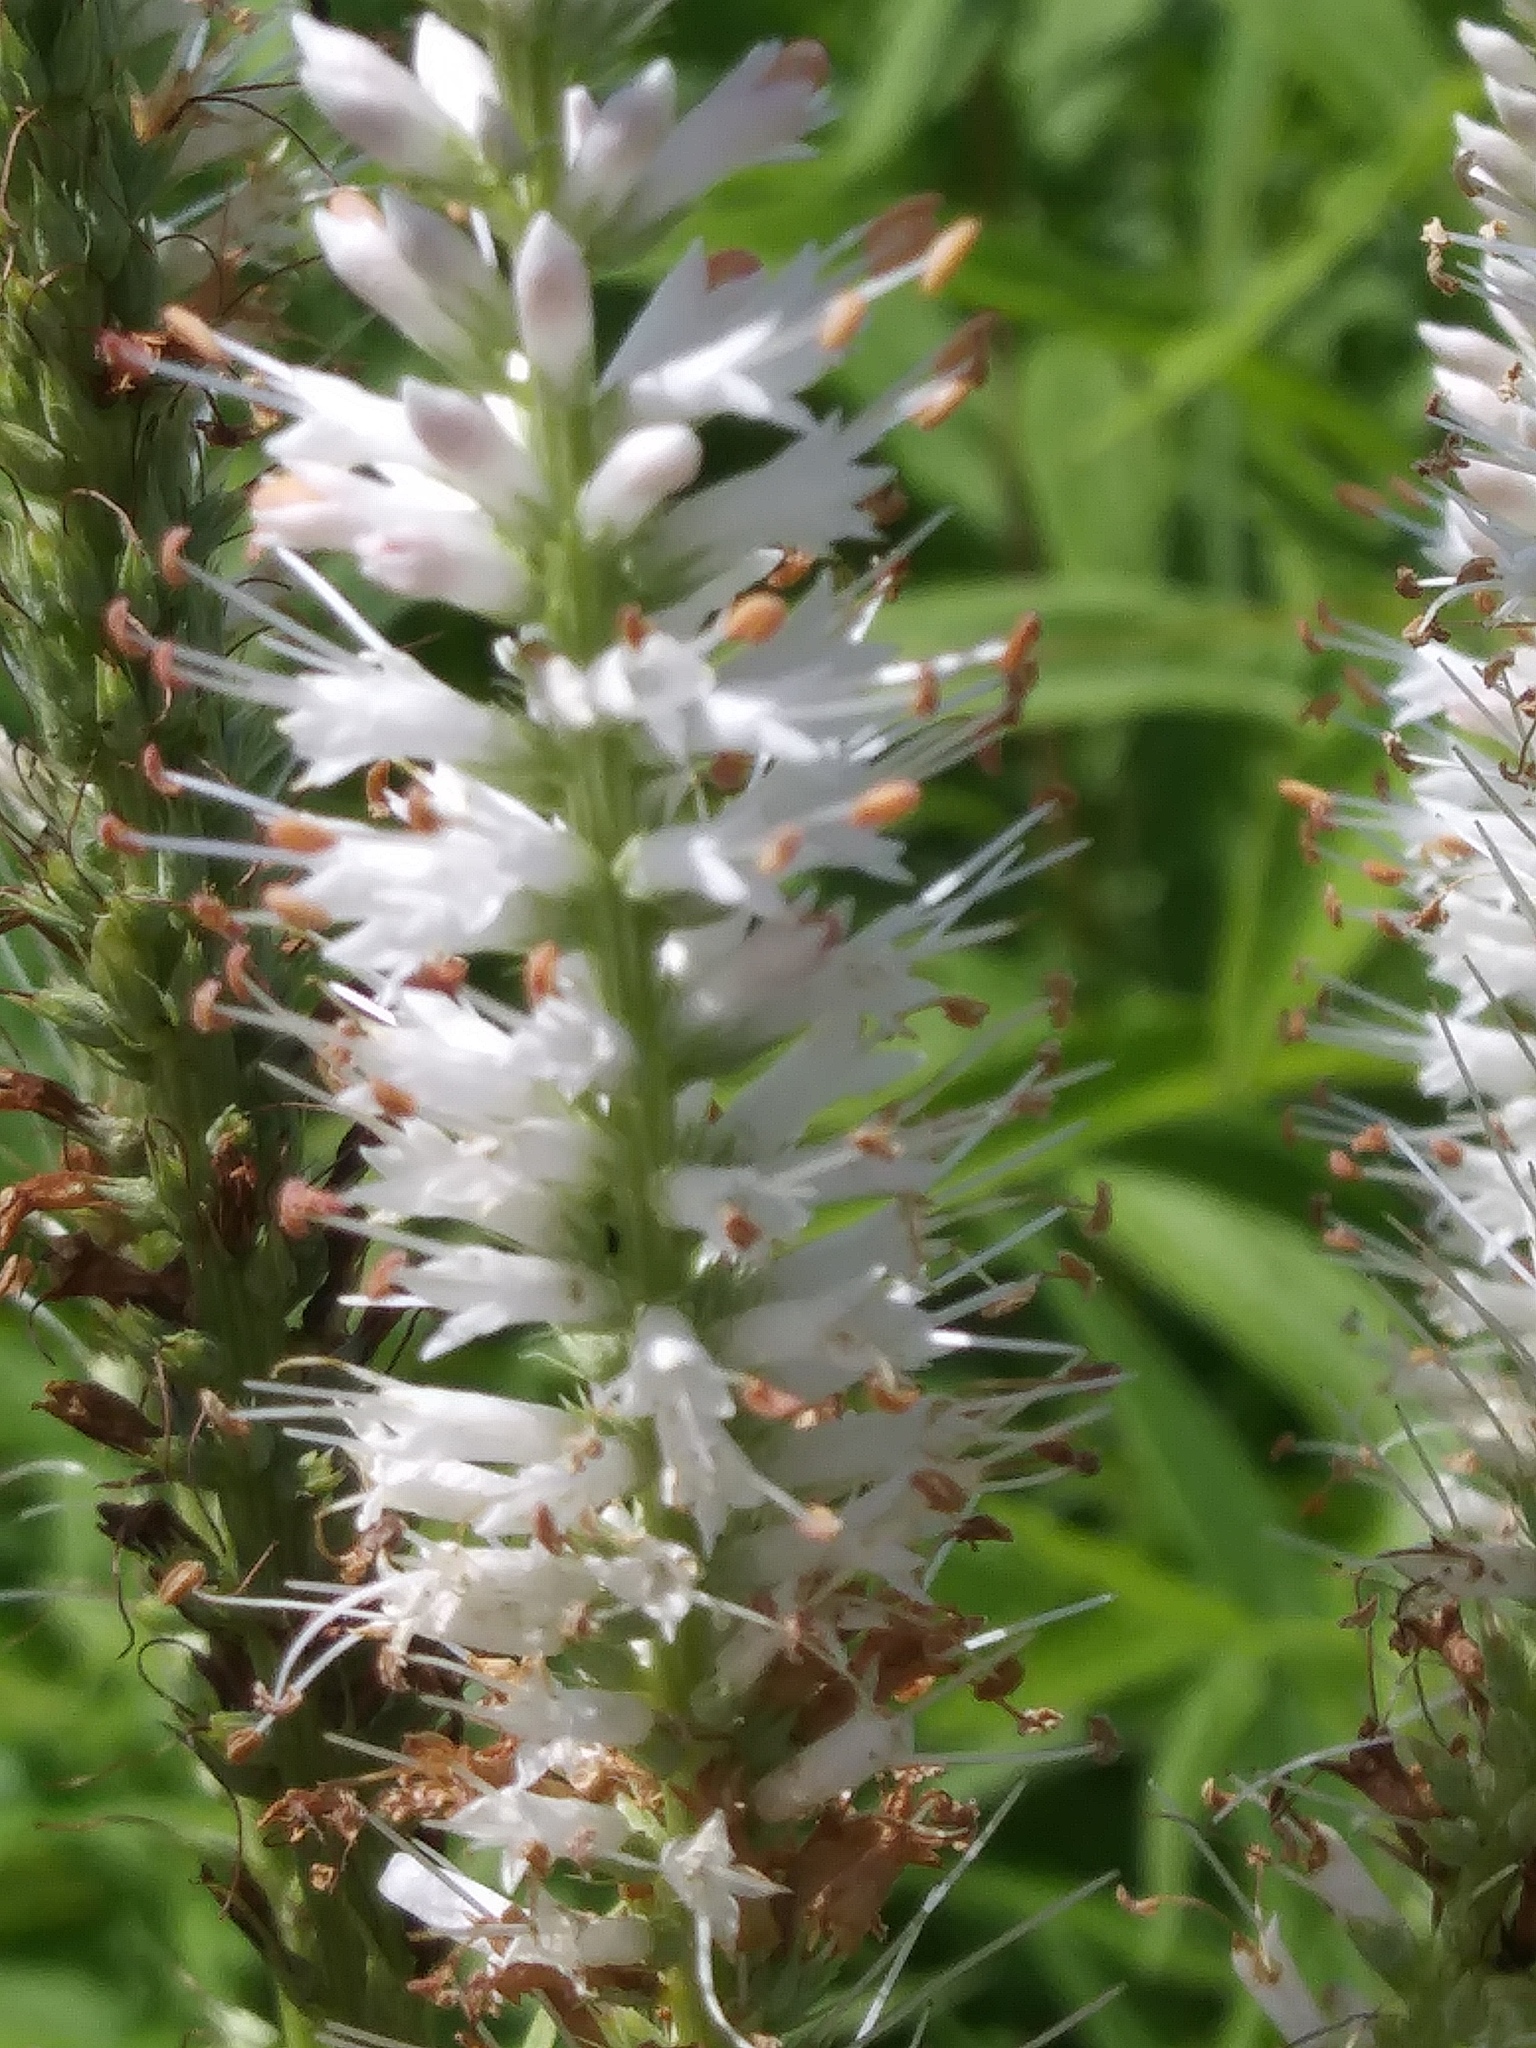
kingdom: Plantae
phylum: Tracheophyta
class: Magnoliopsida
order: Lamiales
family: Plantaginaceae
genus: Veronicastrum
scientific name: Veronicastrum virginicum
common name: Blackroot
